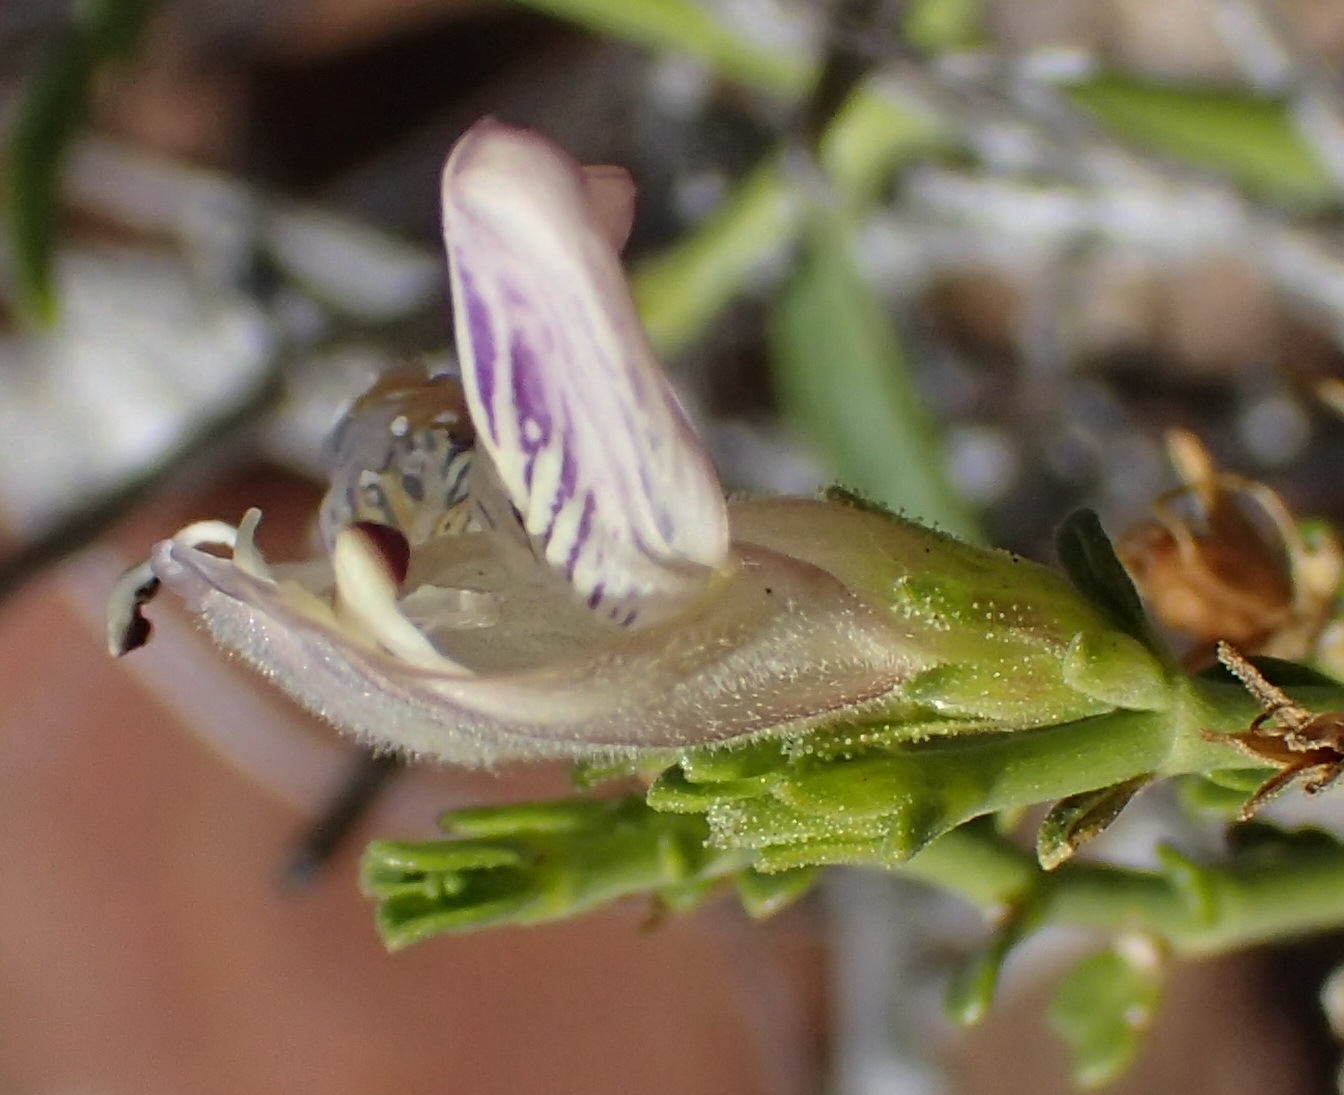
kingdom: Plantae
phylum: Tracheophyta
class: Magnoliopsida
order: Lamiales
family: Acanthaceae
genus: Pogonospermum
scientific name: Pogonospermum
